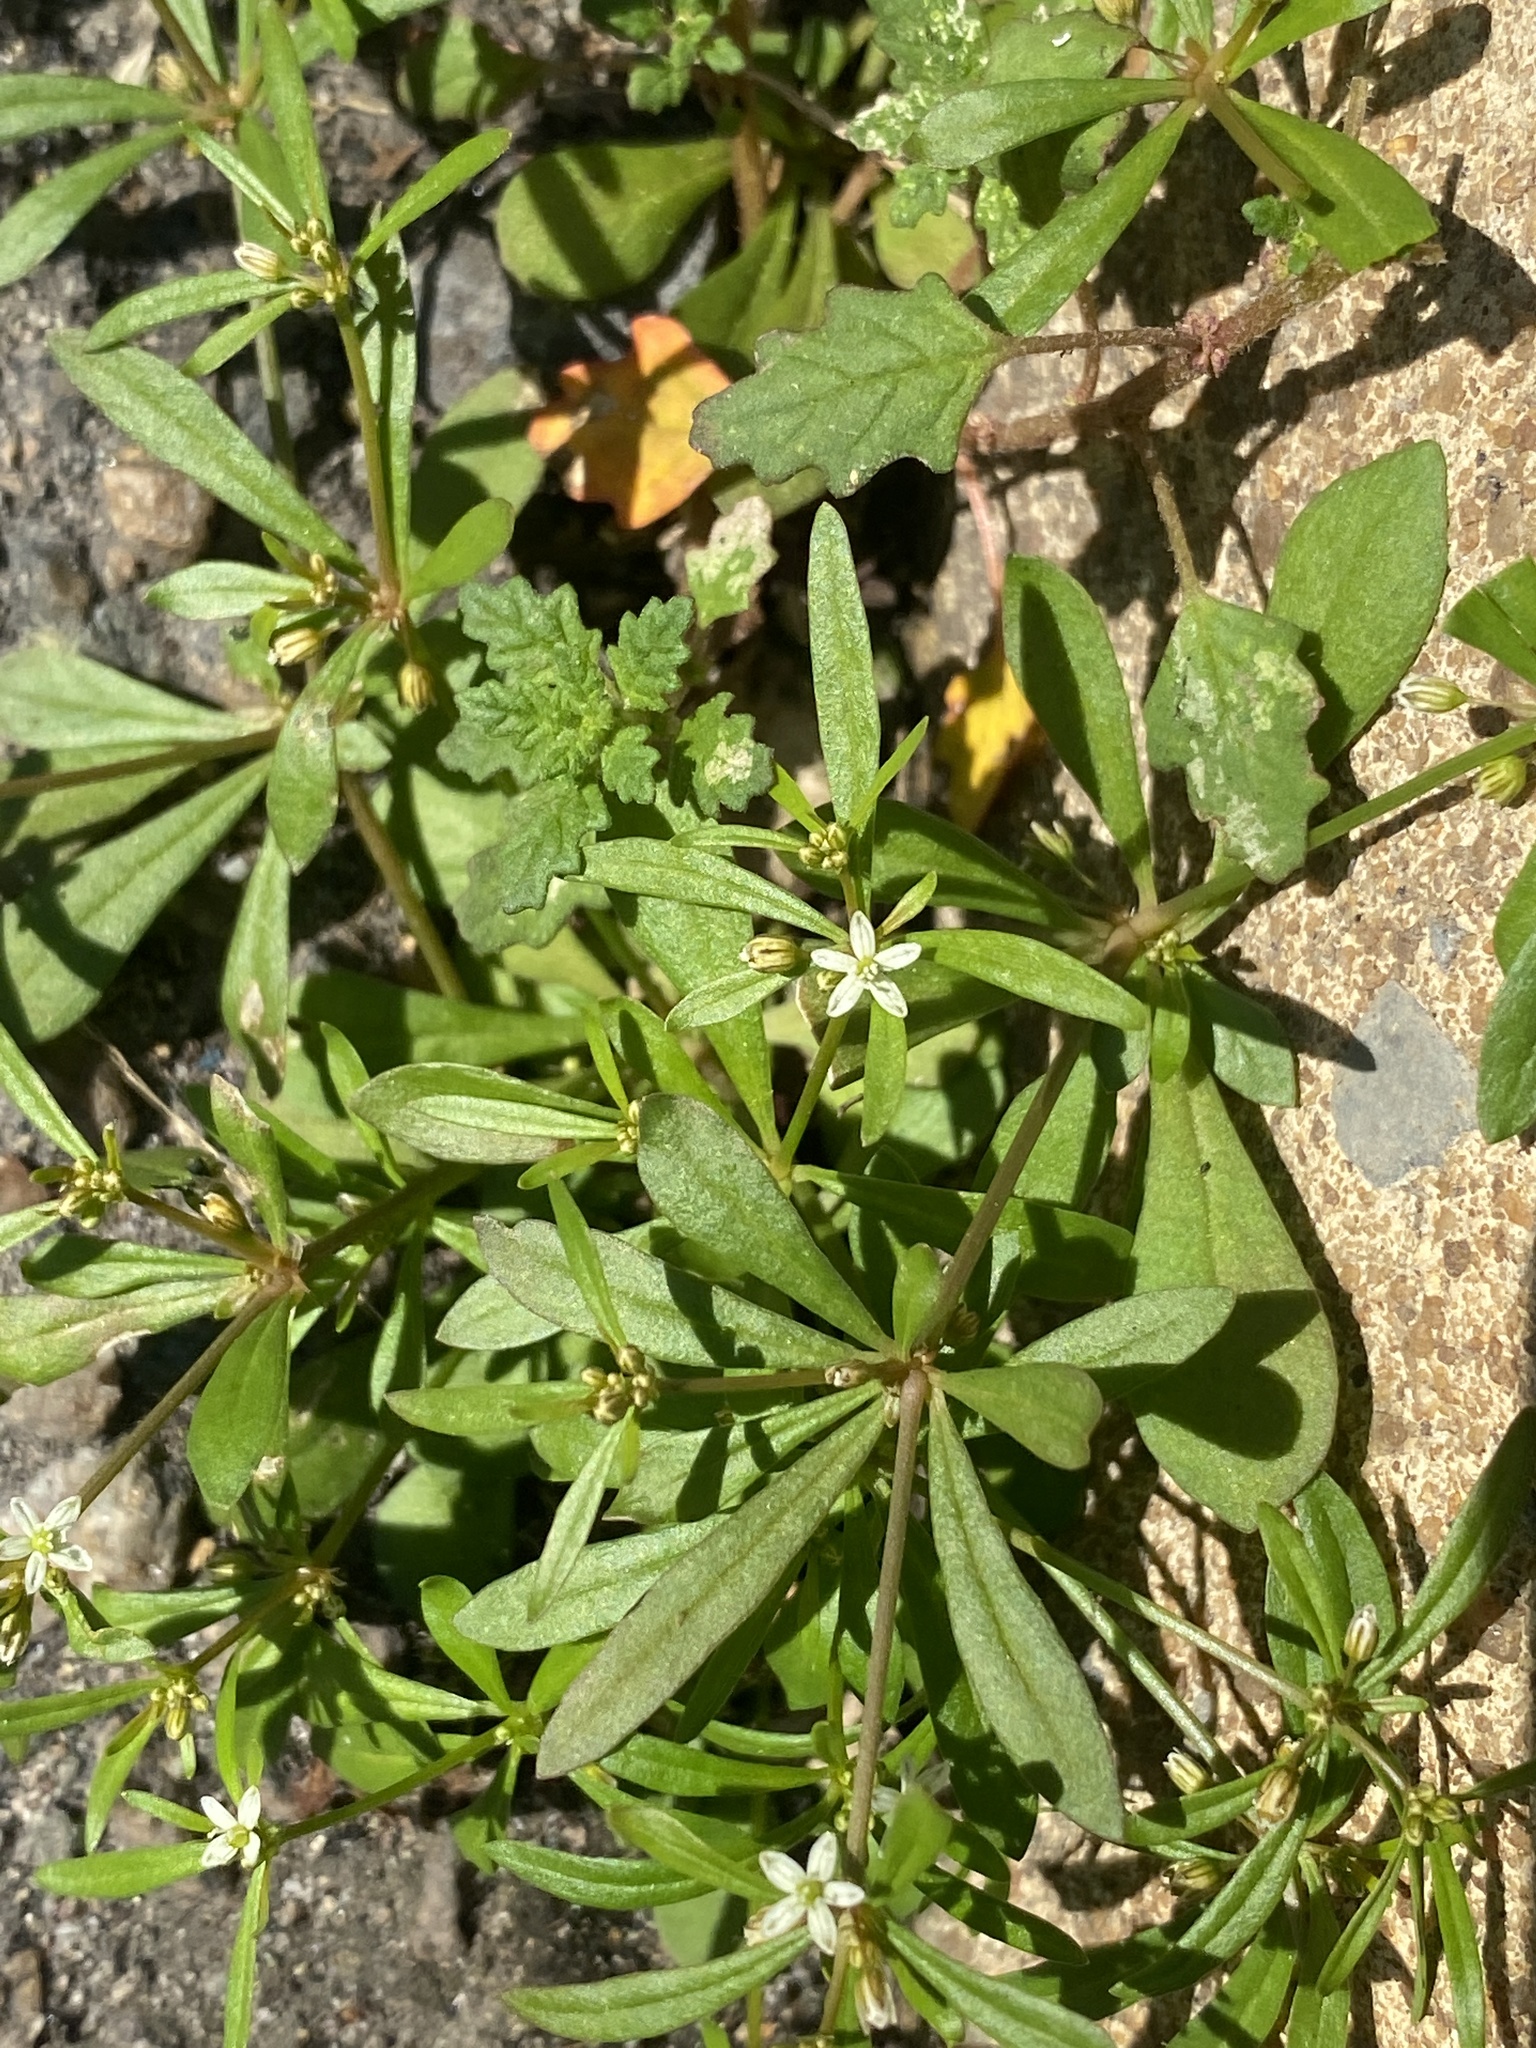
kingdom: Plantae
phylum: Tracheophyta
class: Magnoliopsida
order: Caryophyllales
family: Molluginaceae
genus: Mollugo
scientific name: Mollugo verticillata
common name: Green carpetweed
